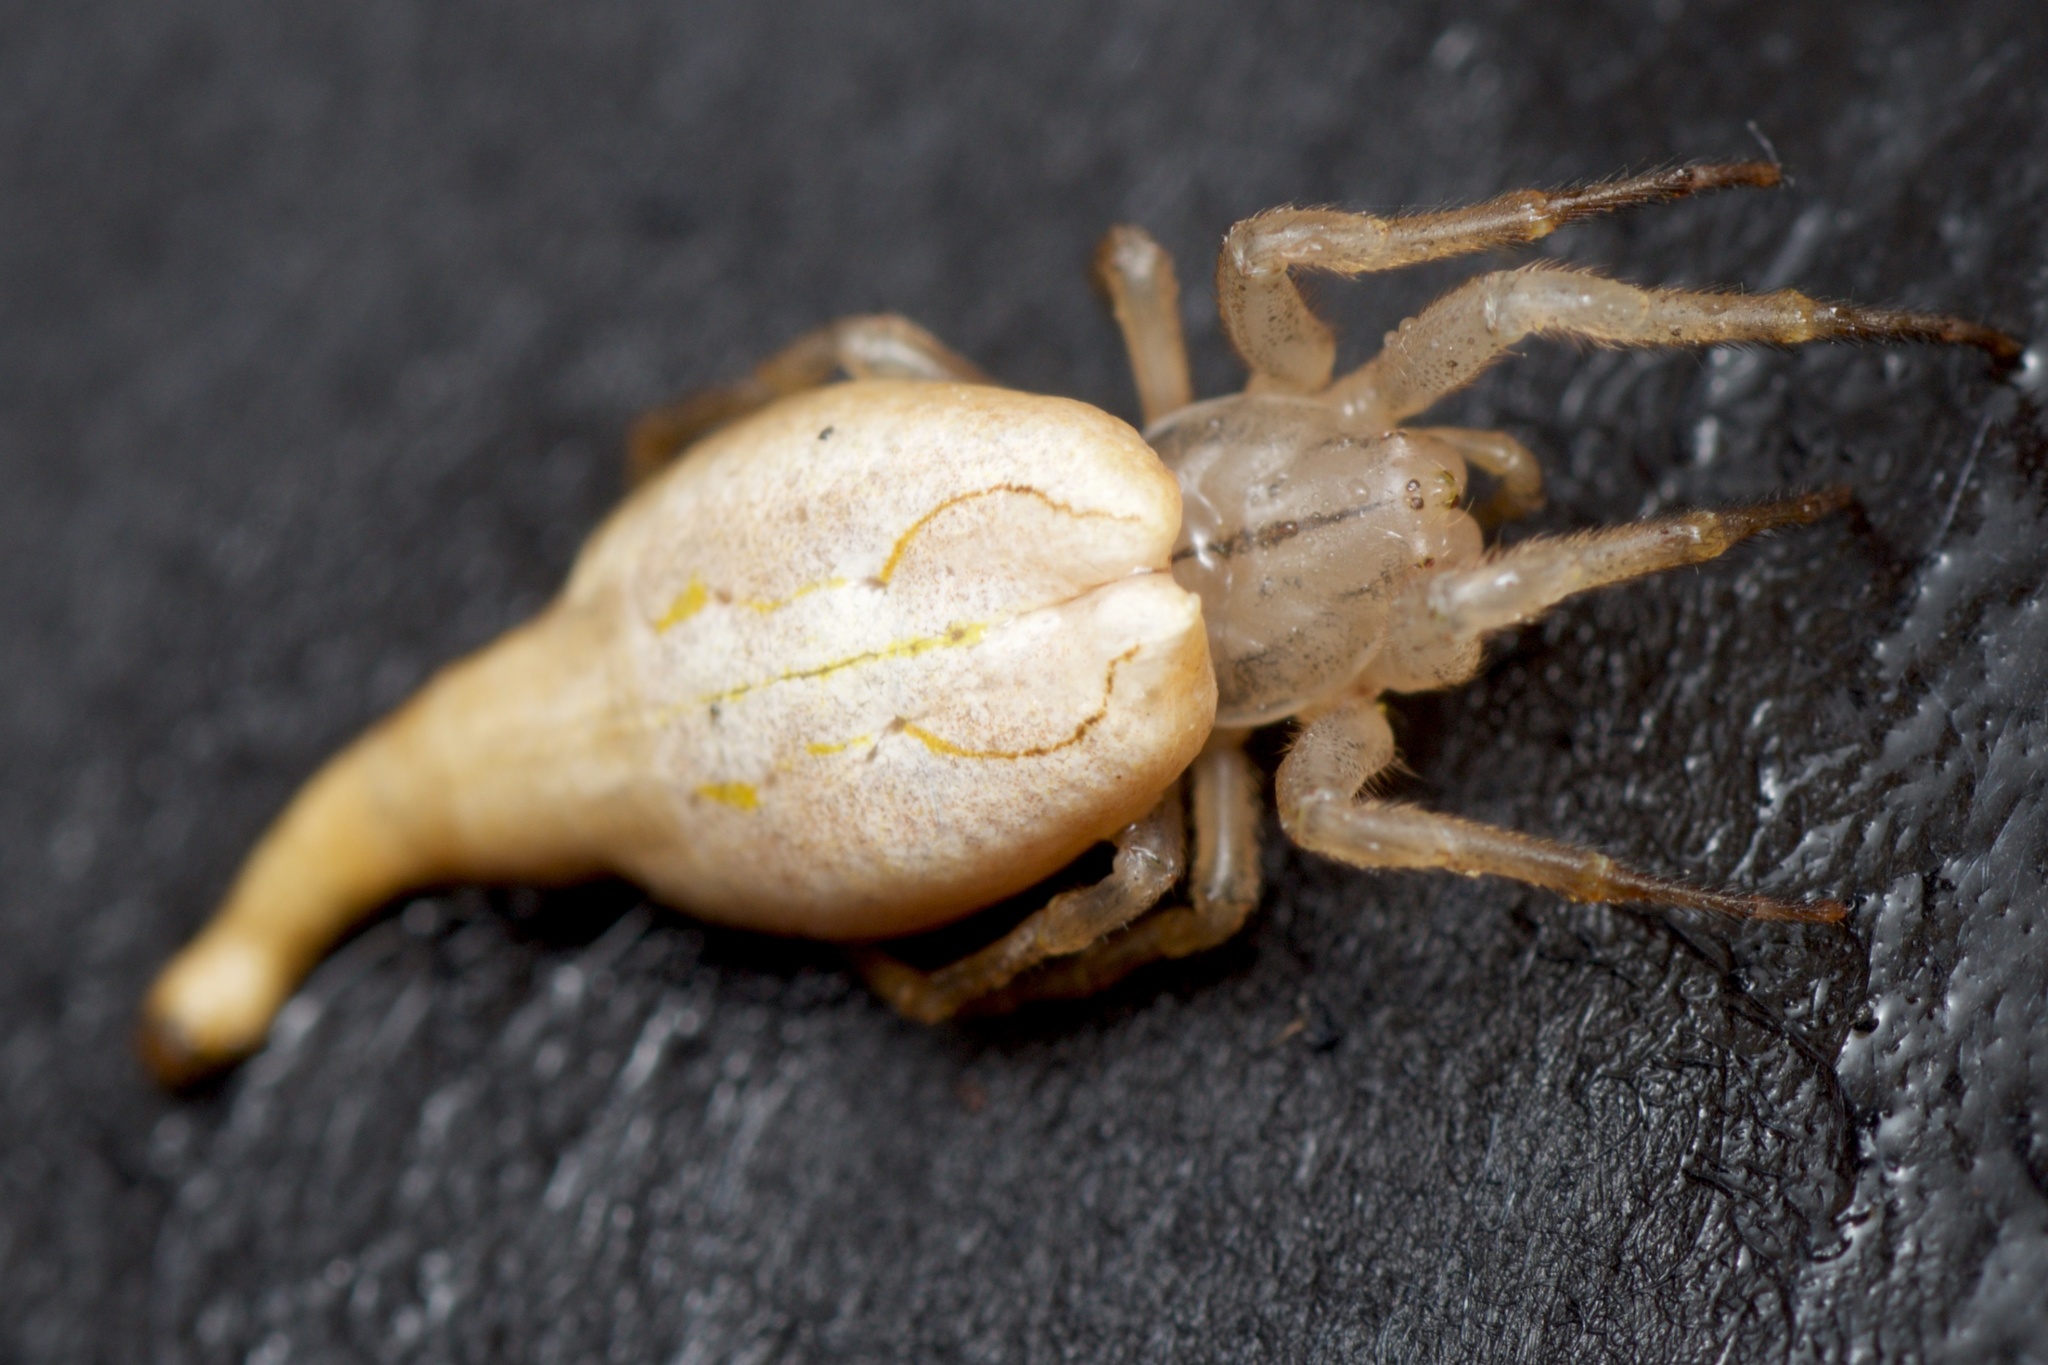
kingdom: Animalia
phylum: Arthropoda
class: Arachnida
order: Araneae
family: Araneidae
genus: Arachnura
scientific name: Arachnura feredayi
